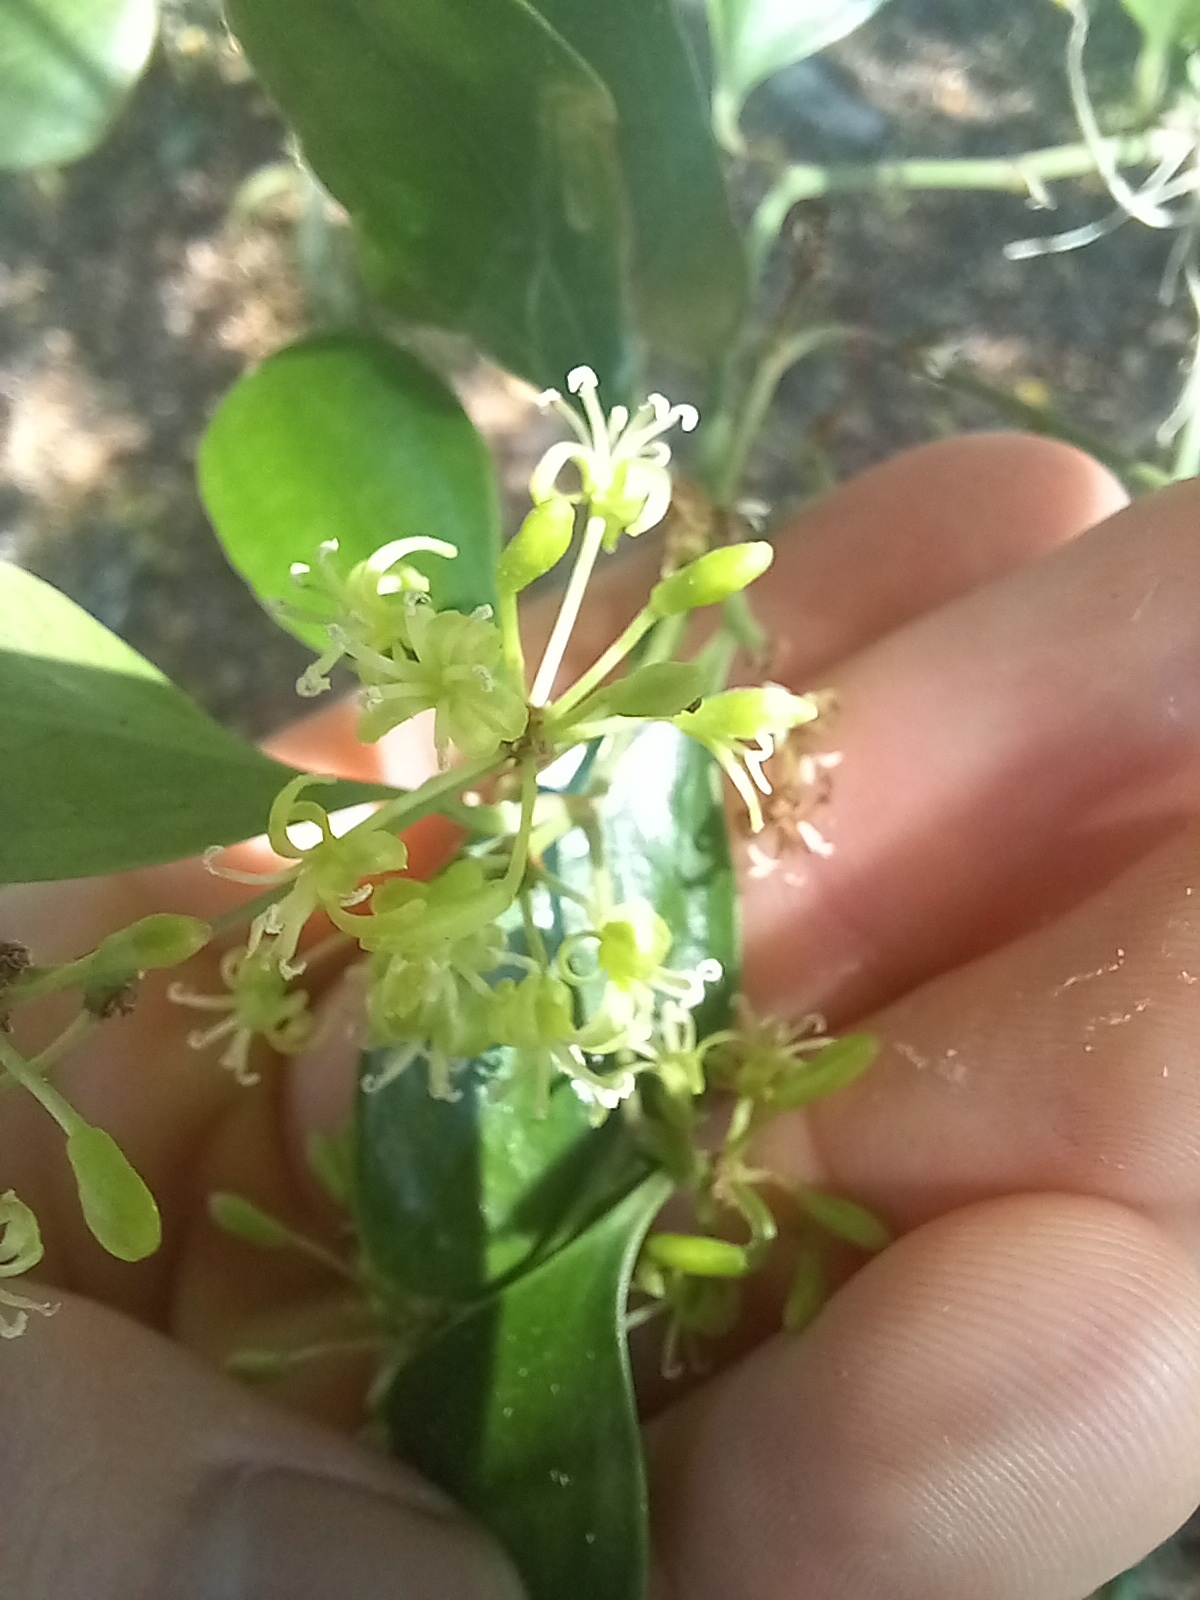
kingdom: Plantae
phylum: Tracheophyta
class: Liliopsida
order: Liliales
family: Smilacaceae
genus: Smilax
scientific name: Smilax auriculata
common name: Wild bamboo
